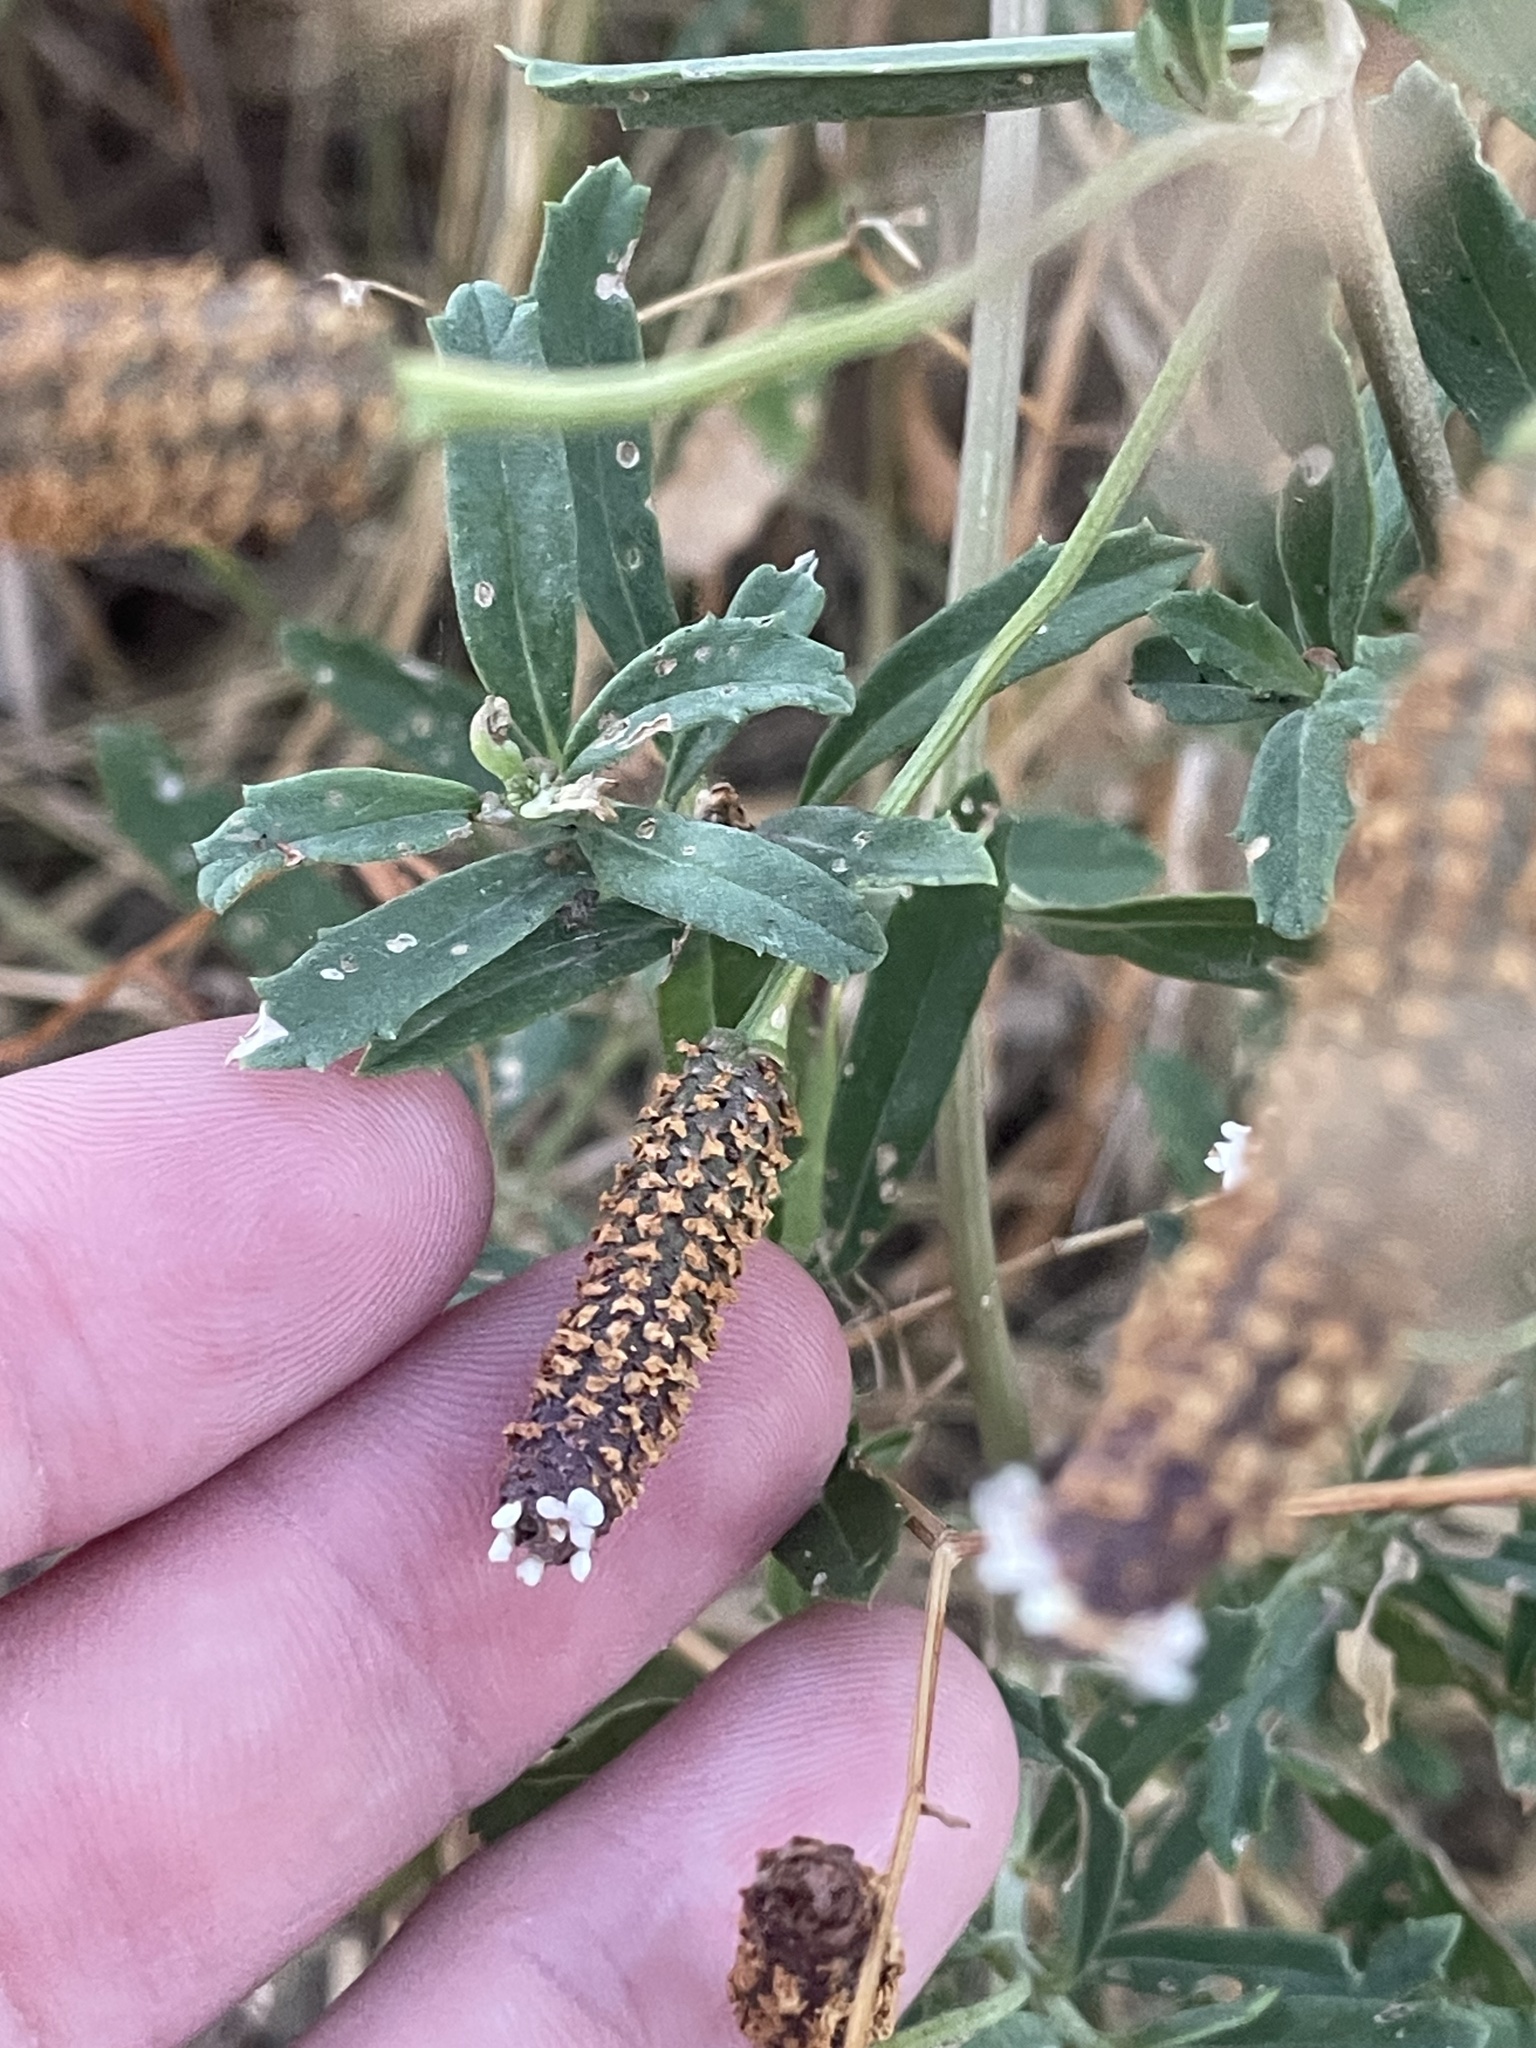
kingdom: Plantae
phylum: Tracheophyta
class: Magnoliopsida
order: Lamiales
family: Verbenaceae
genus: Phyla
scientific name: Phyla nodiflora
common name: Frogfruit
